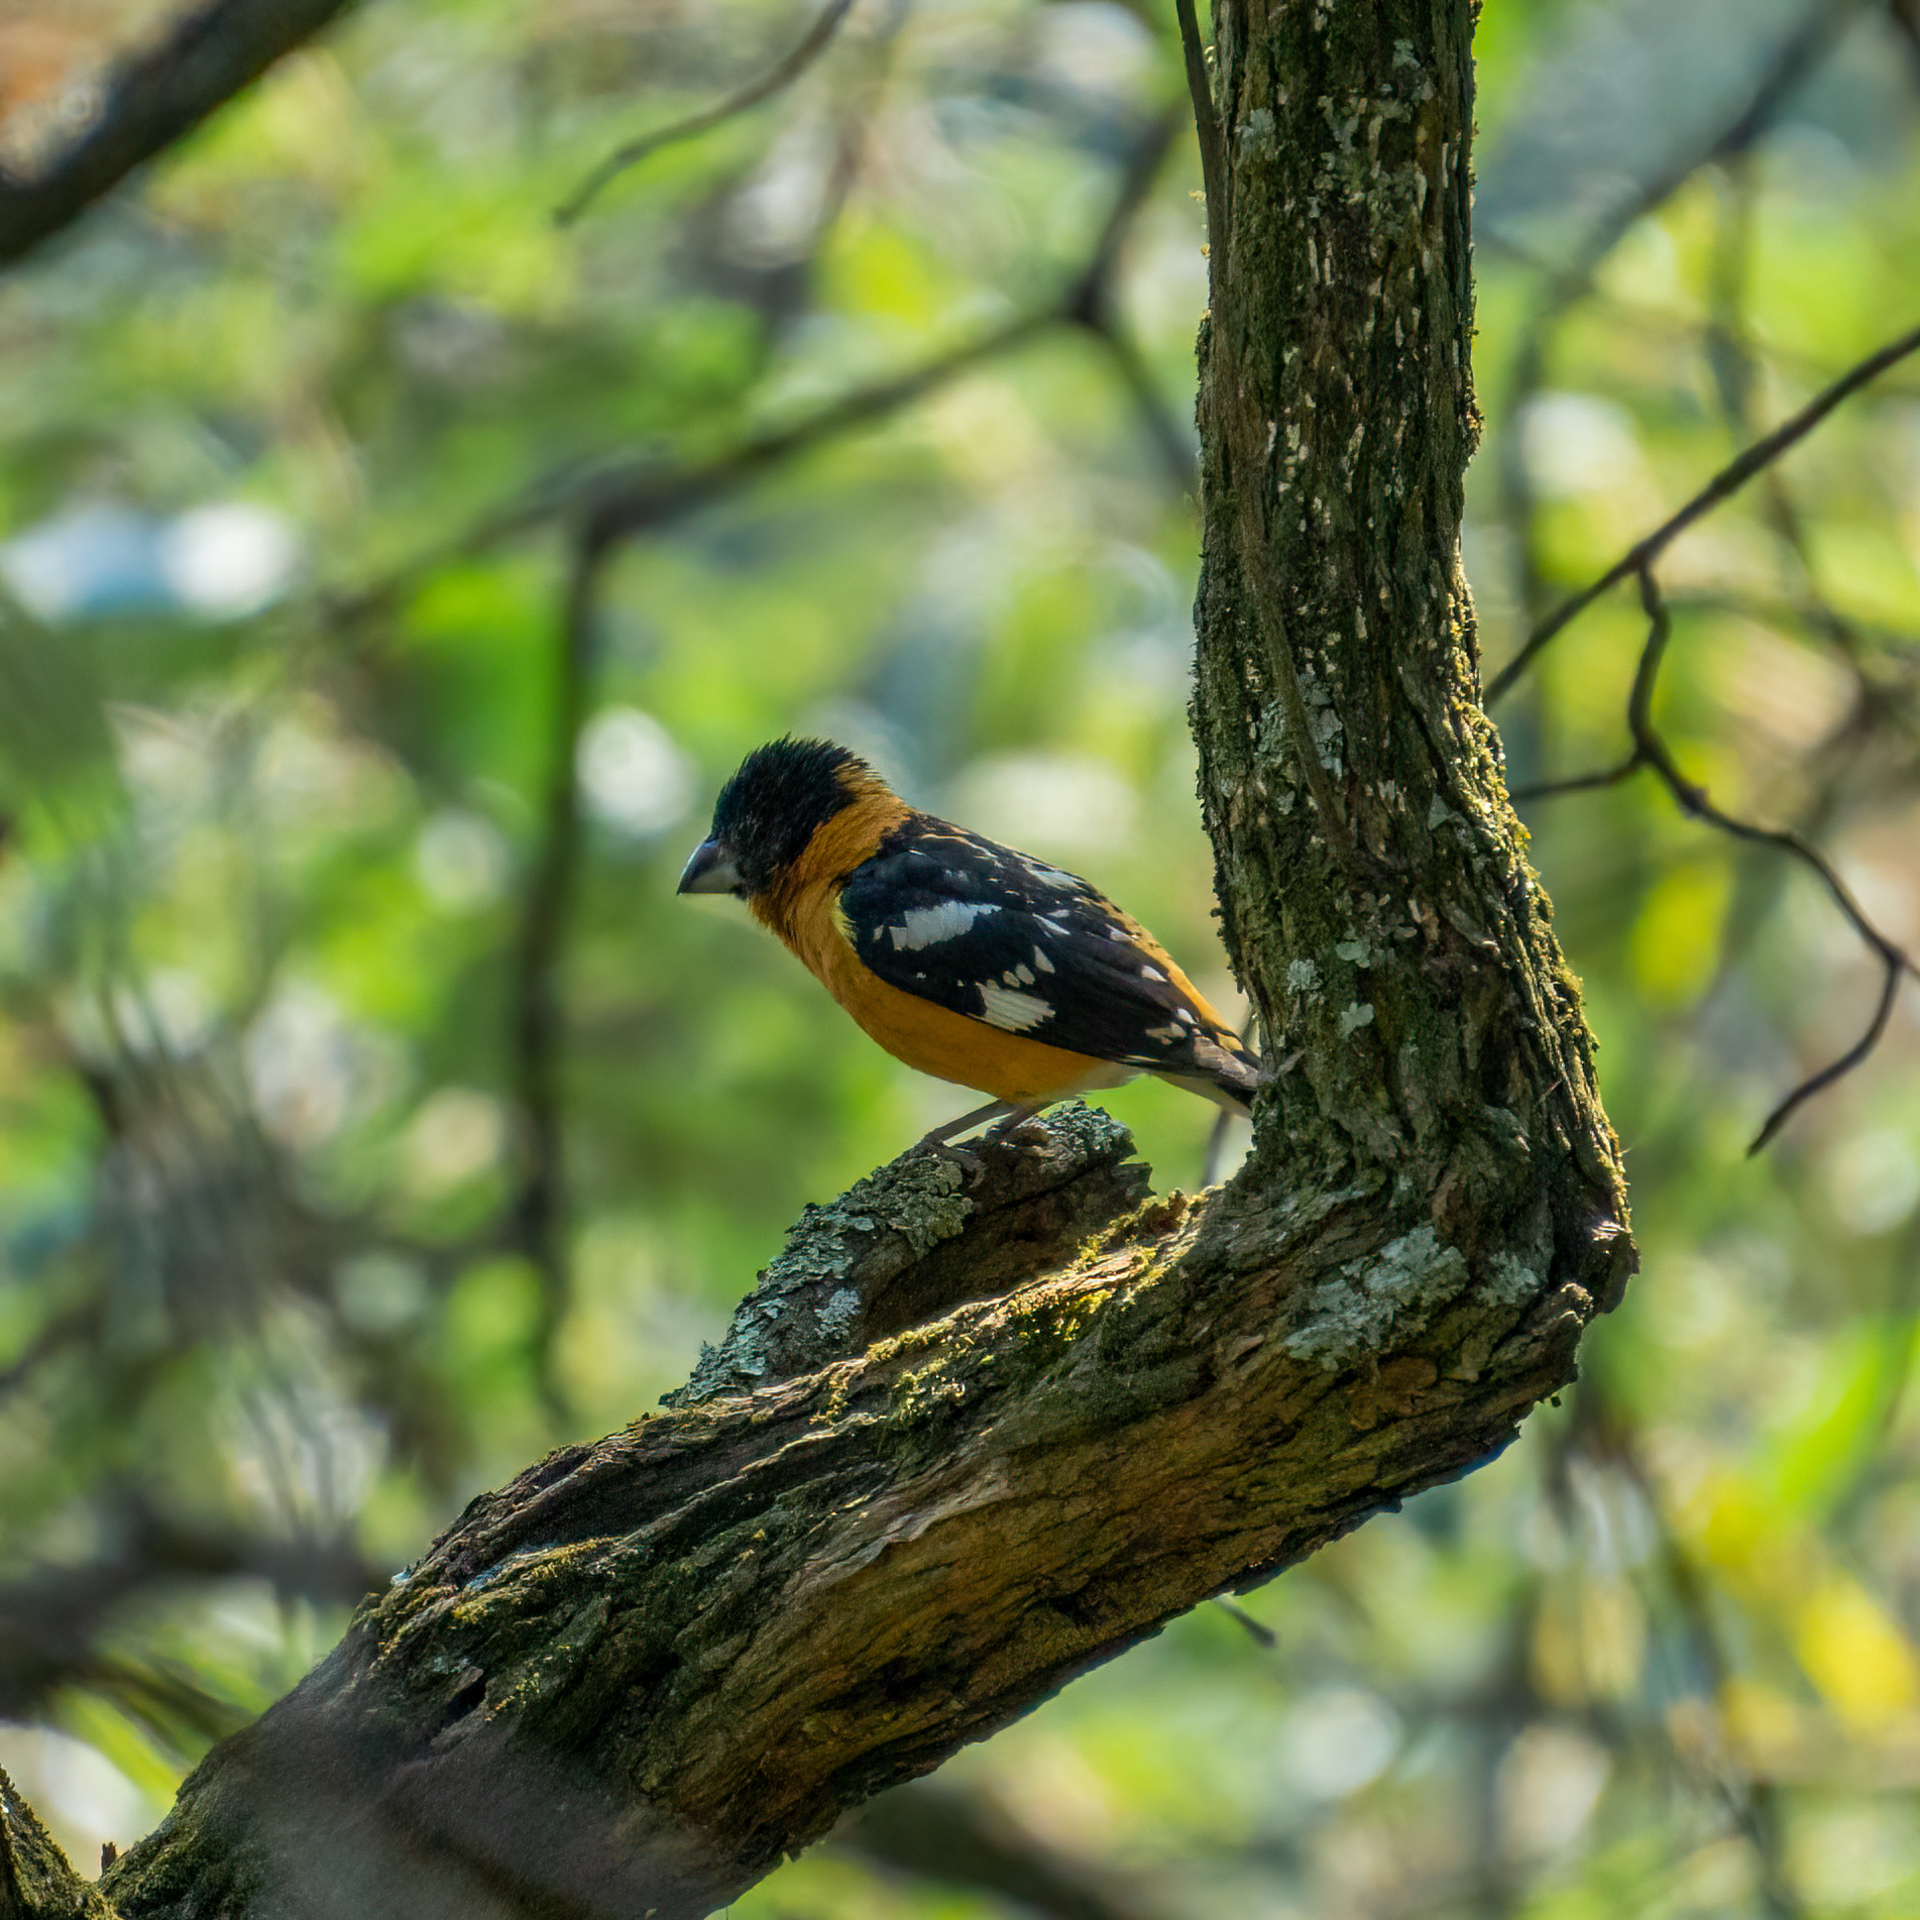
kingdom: Animalia
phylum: Chordata
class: Aves
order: Passeriformes
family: Cardinalidae
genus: Pheucticus
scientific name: Pheucticus melanocephalus
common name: Black-headed grosbeak
